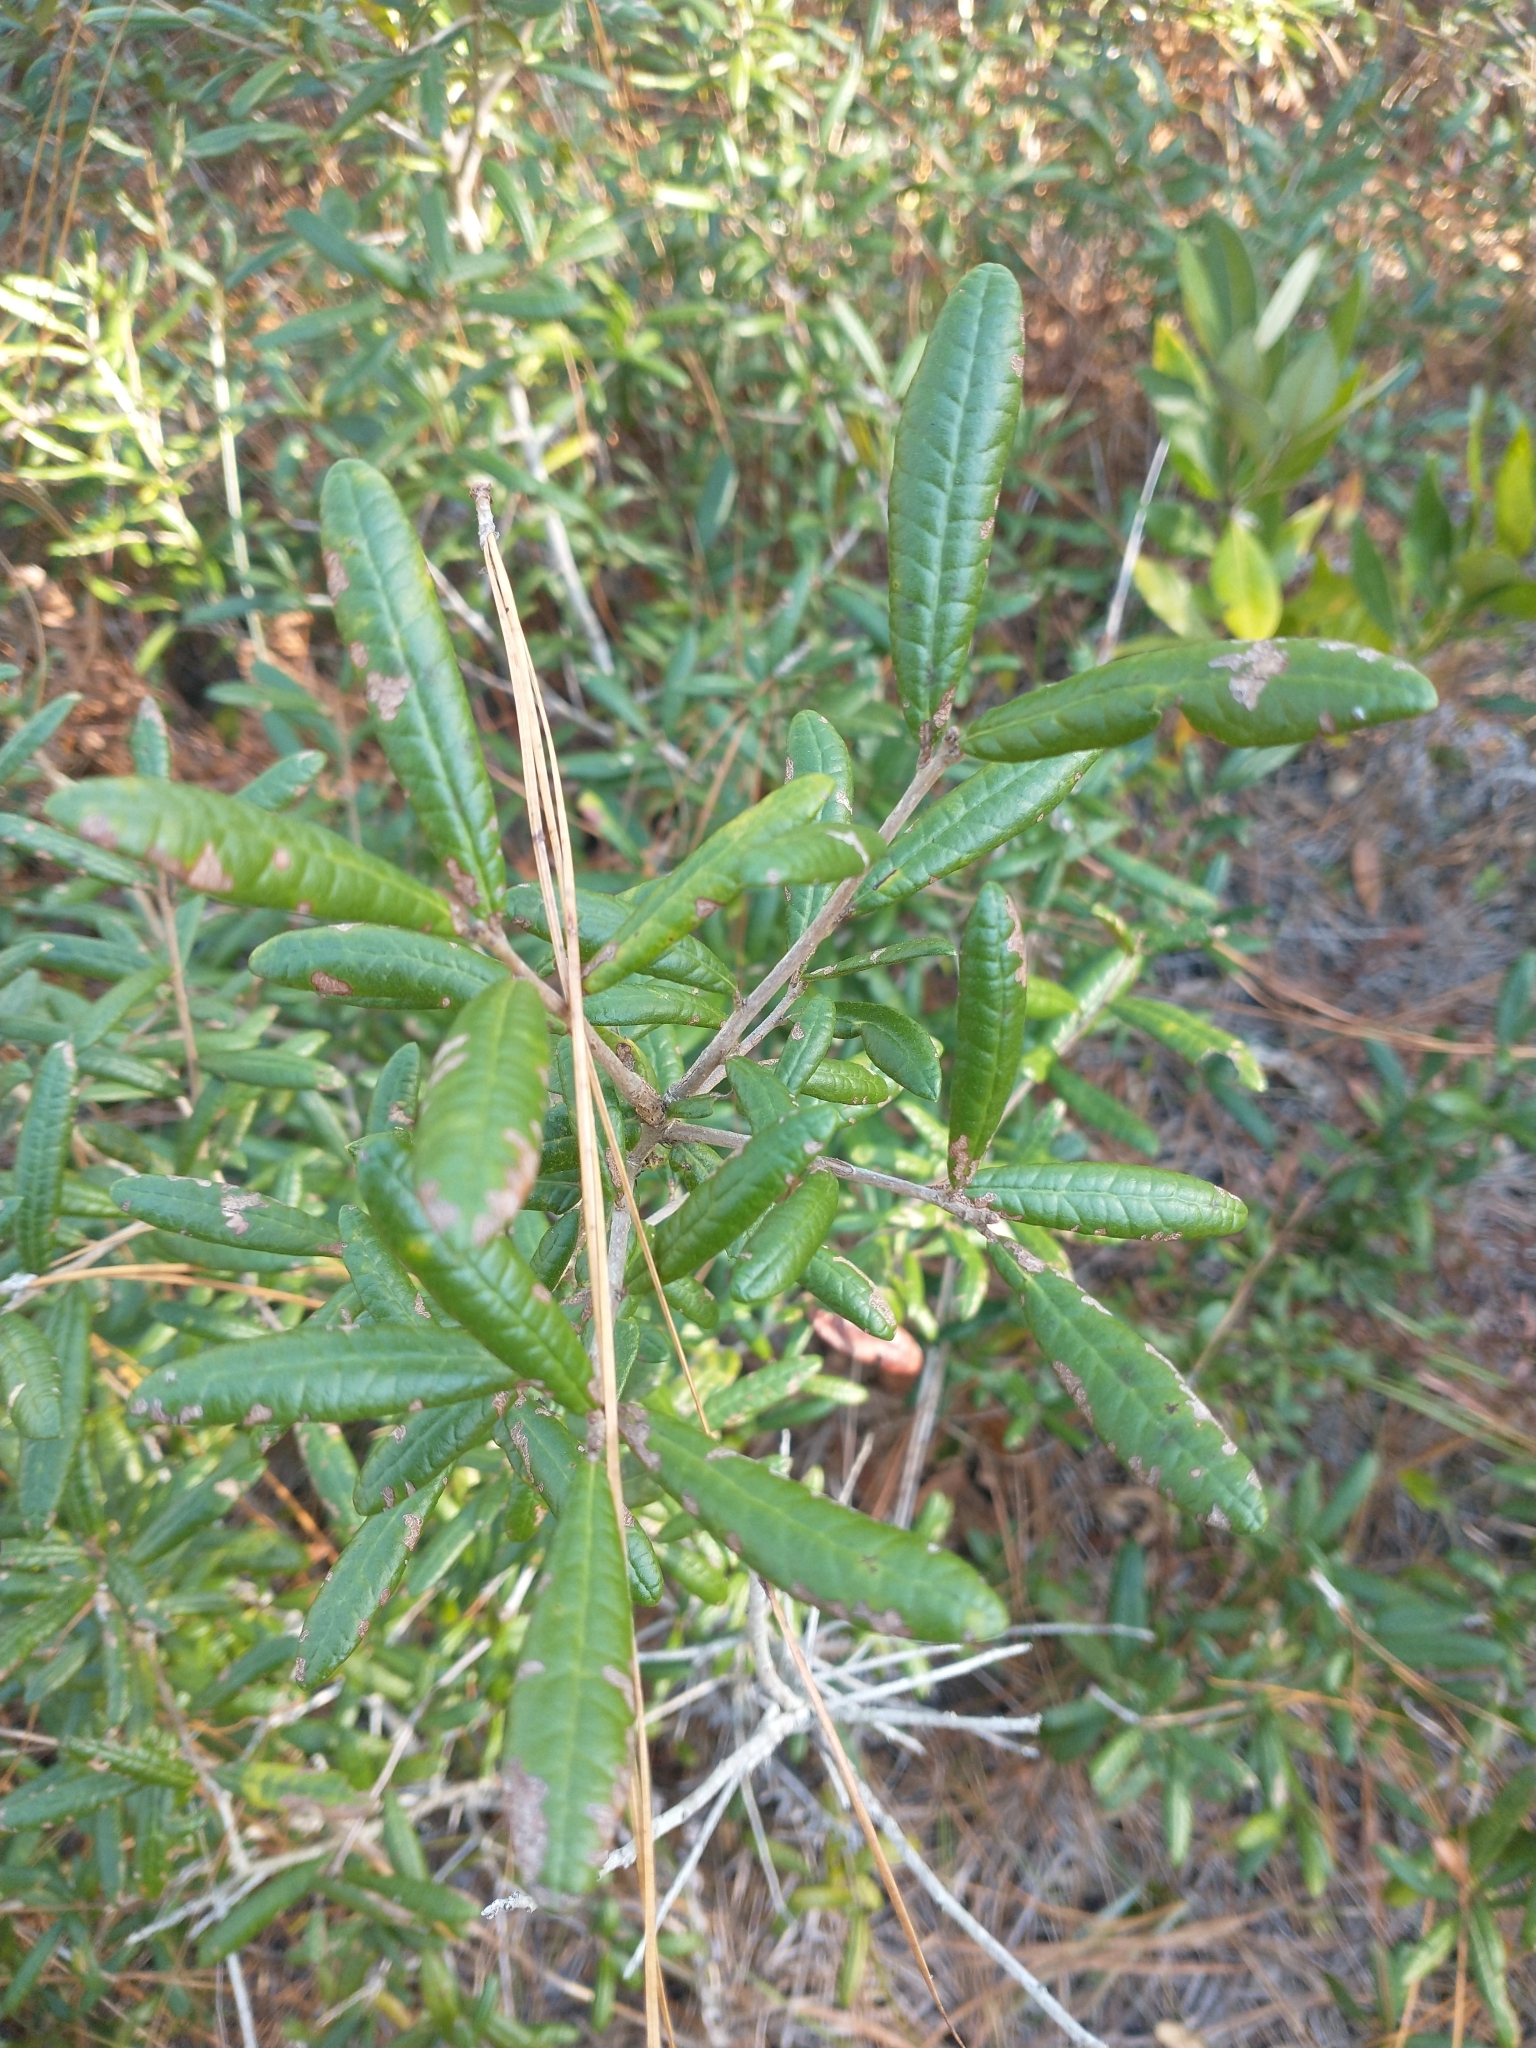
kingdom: Plantae
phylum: Tracheophyta
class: Magnoliopsida
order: Fagales
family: Fagaceae
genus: Quercus
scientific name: Quercus geminata
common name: Sand live oak
